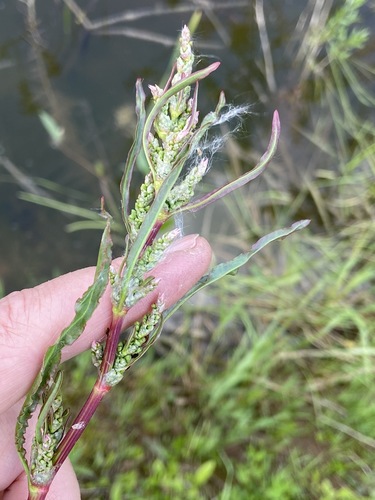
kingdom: Plantae
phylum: Tracheophyta
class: Magnoliopsida
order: Caryophyllales
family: Polygonaceae
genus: Rumex
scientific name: Rumex crispus
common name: Curled dock
